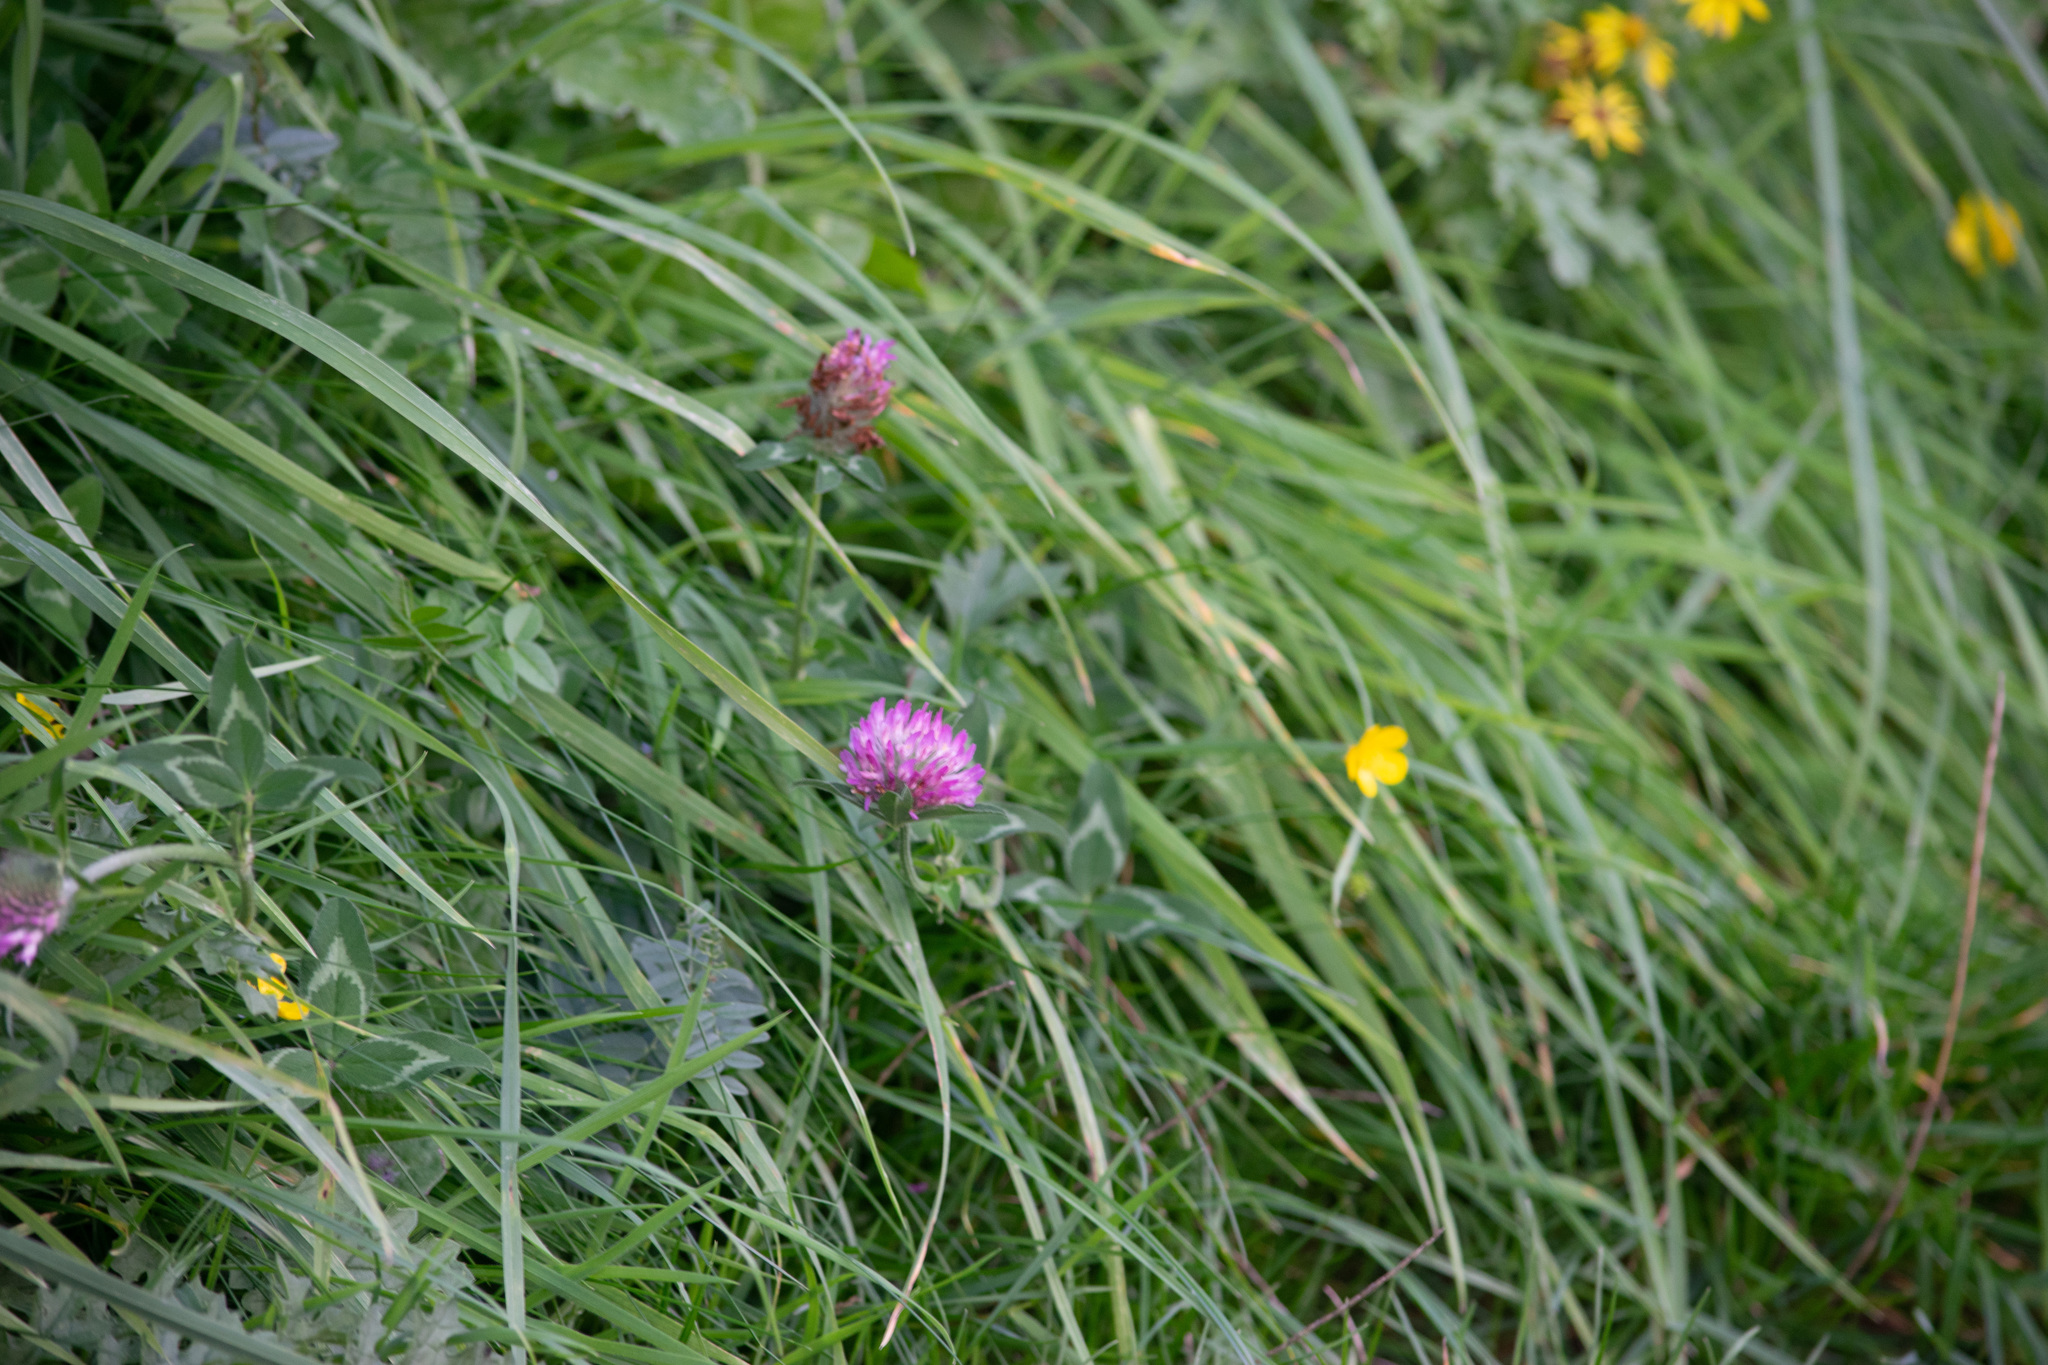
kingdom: Plantae
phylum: Tracheophyta
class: Magnoliopsida
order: Fabales
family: Fabaceae
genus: Trifolium
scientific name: Trifolium pratense
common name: Red clover
